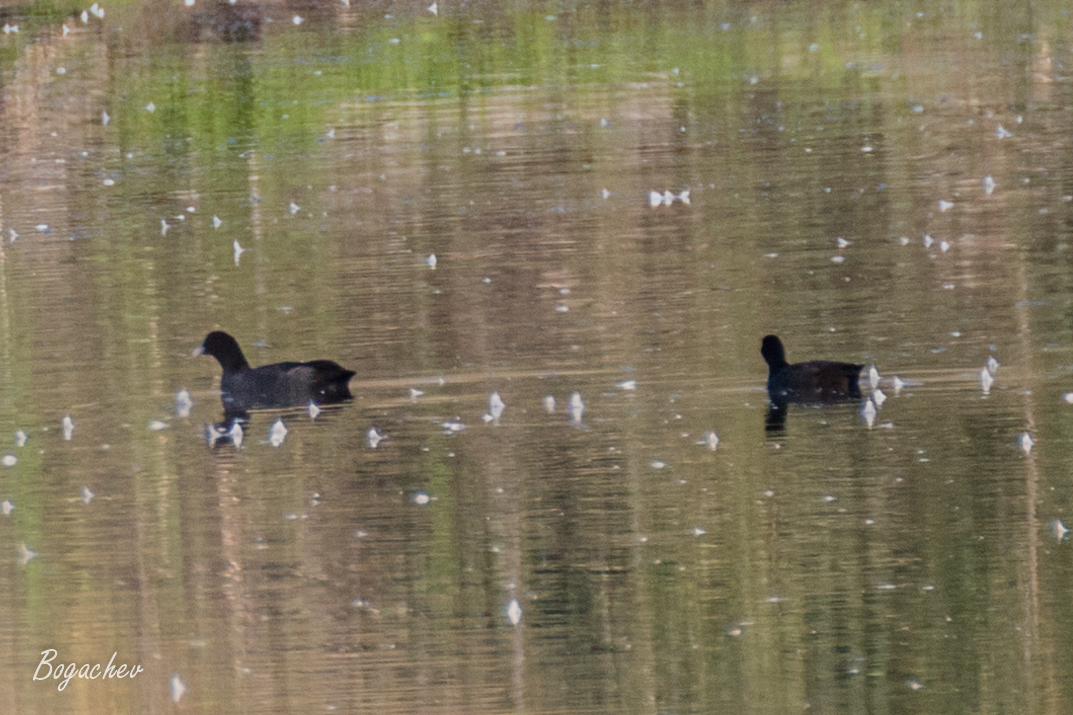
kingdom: Animalia
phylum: Chordata
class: Aves
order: Gruiformes
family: Rallidae
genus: Fulica
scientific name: Fulica atra
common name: Eurasian coot
